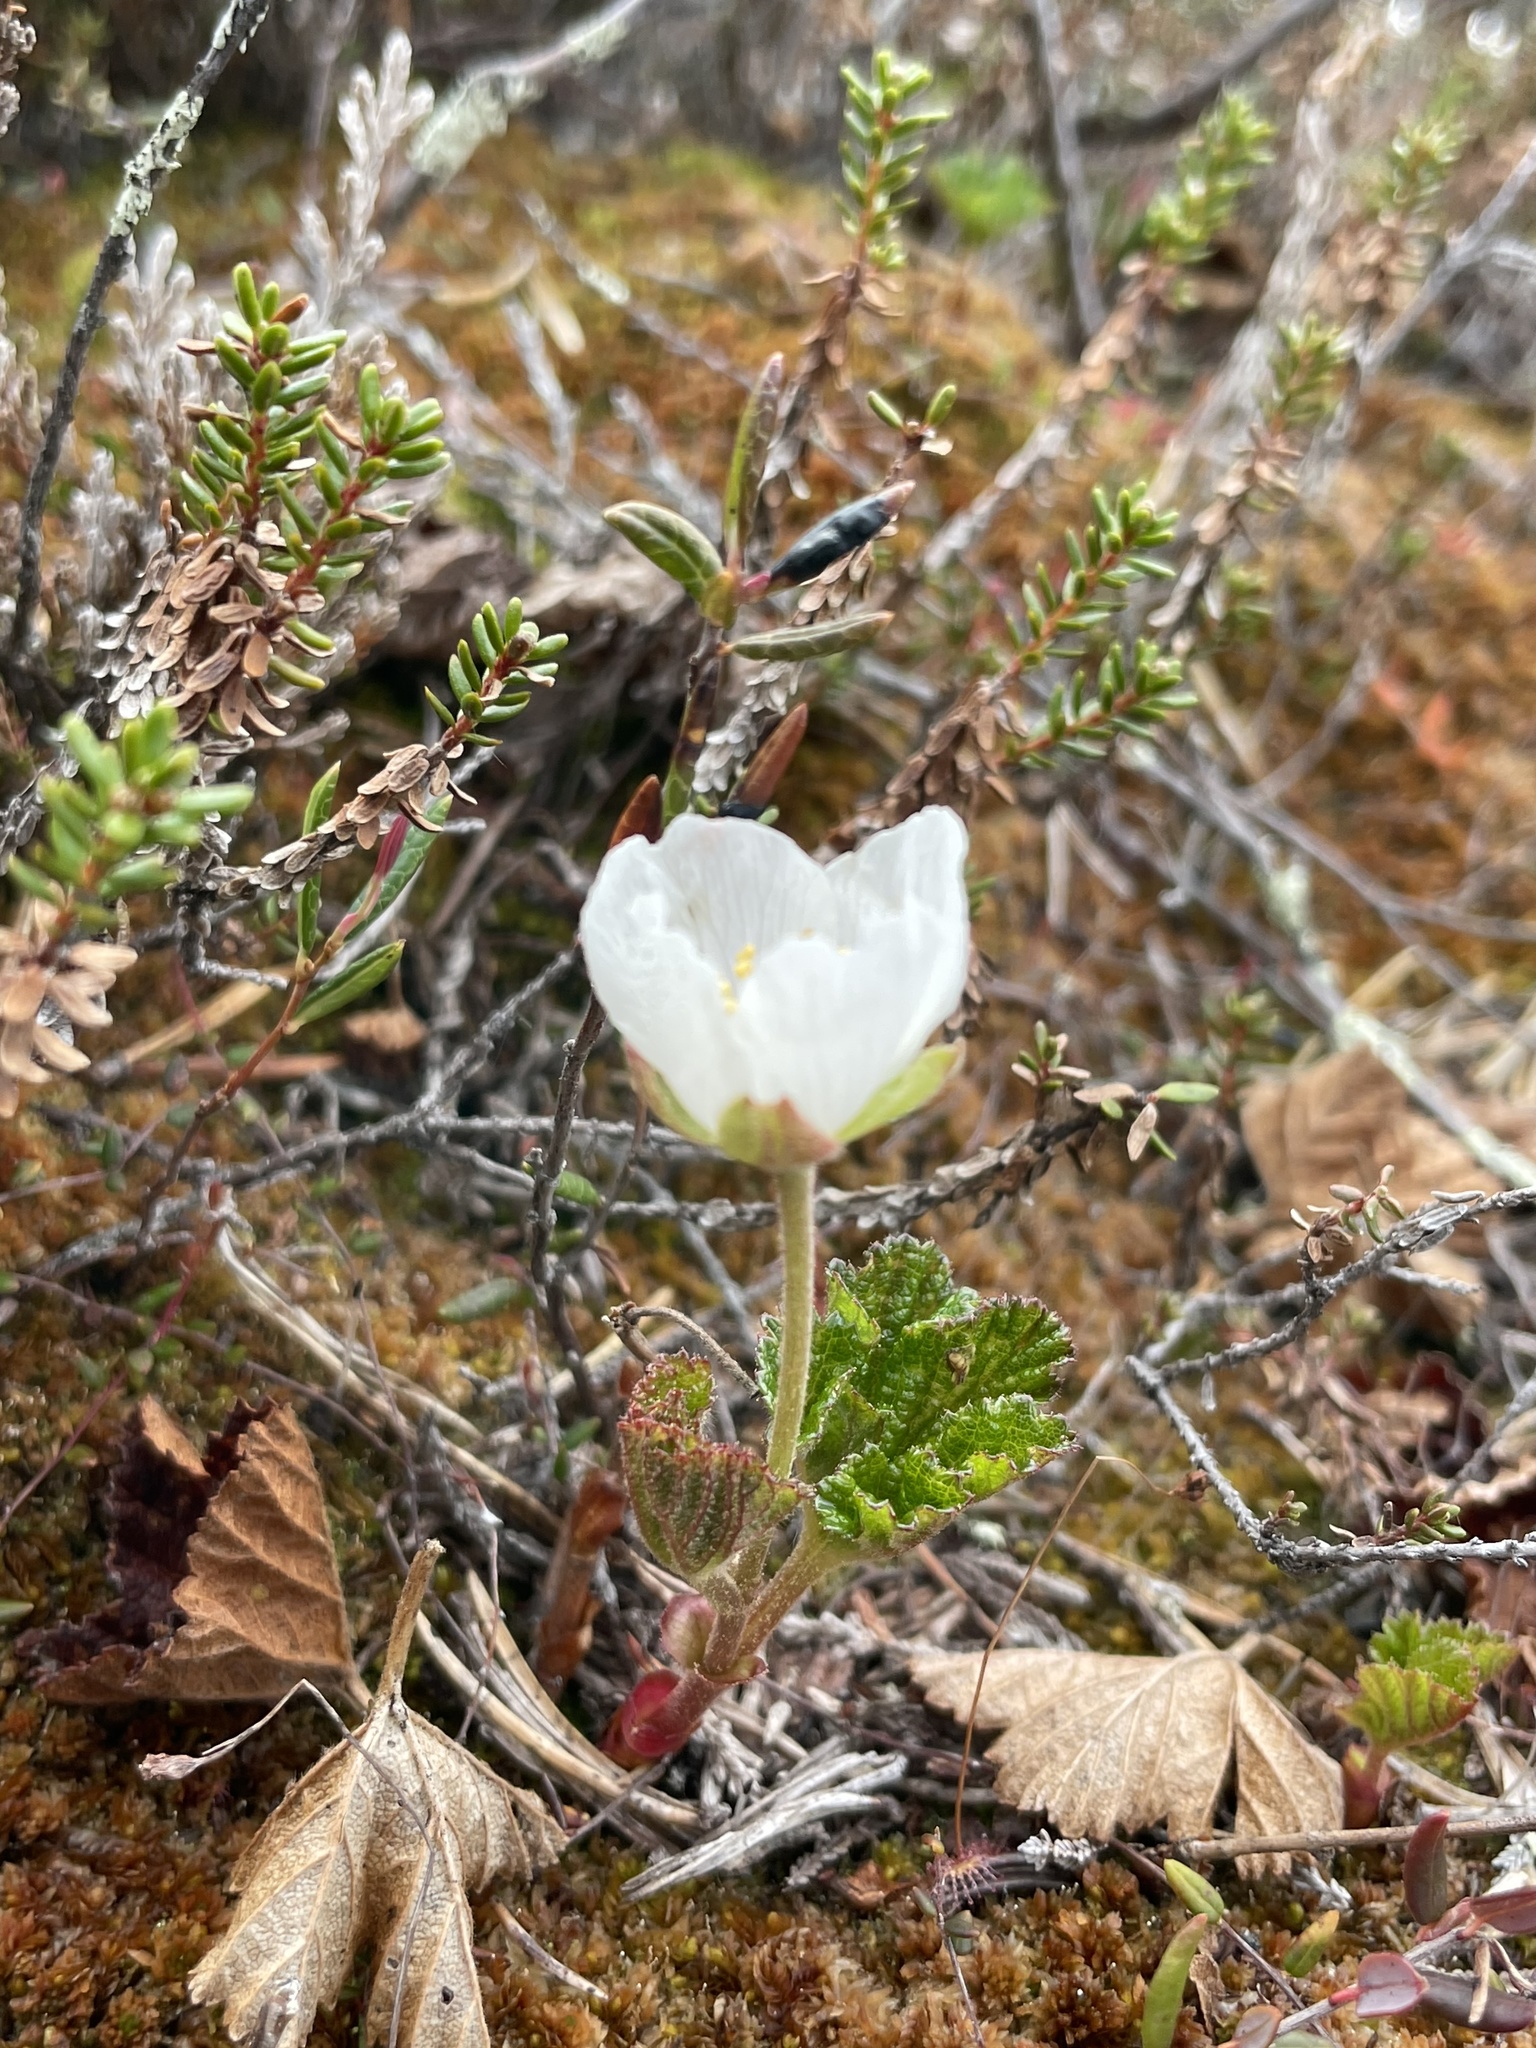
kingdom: Plantae
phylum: Tracheophyta
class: Magnoliopsida
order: Rosales
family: Rosaceae
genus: Rubus
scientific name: Rubus chamaemorus
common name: Cloudberry
